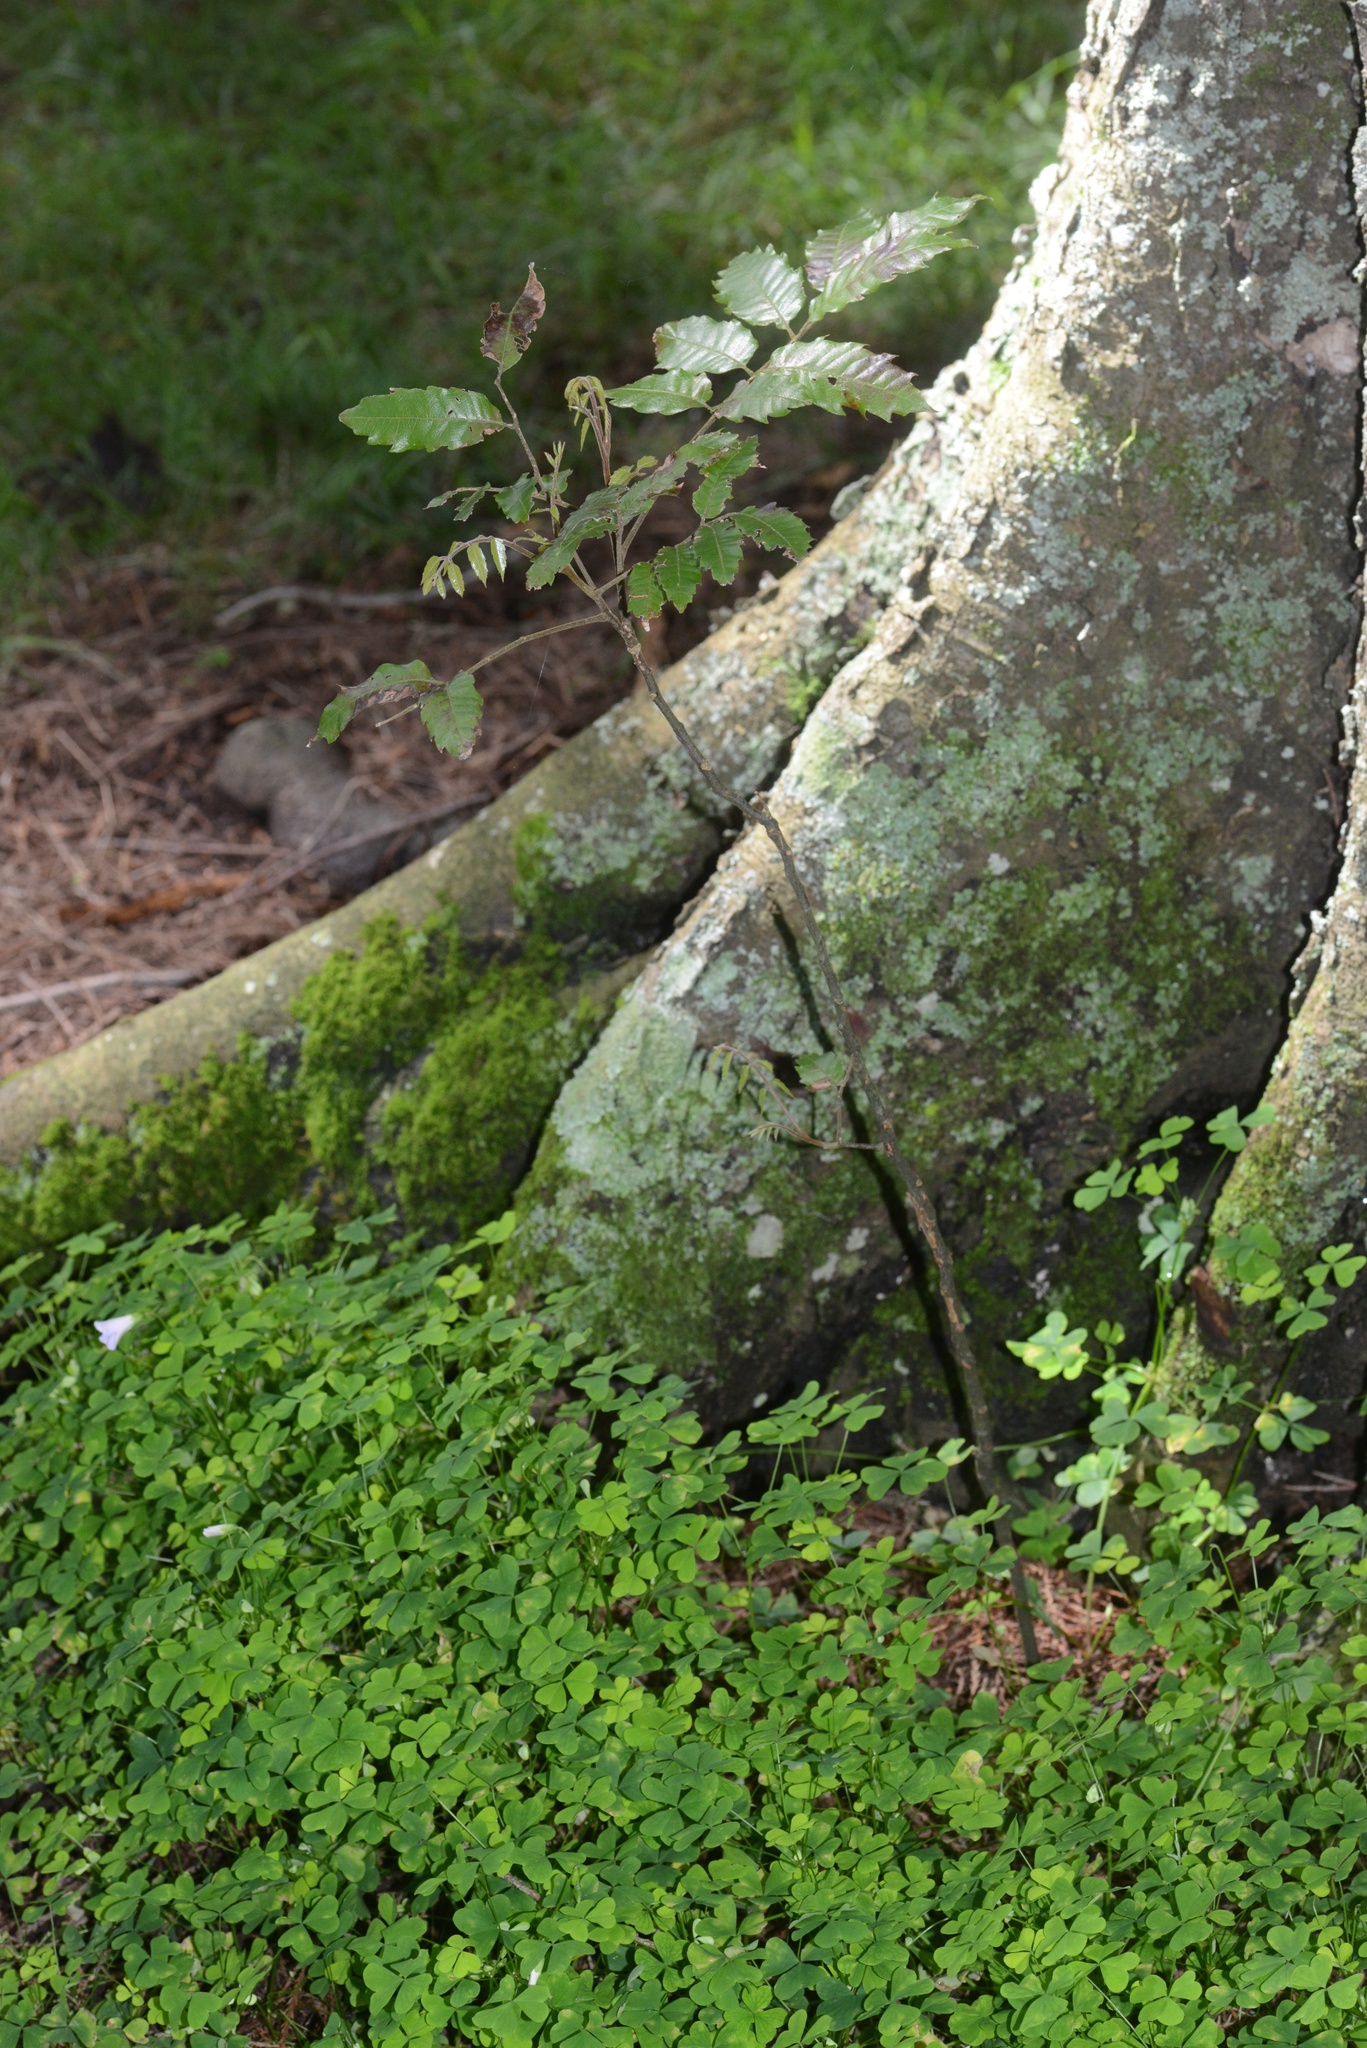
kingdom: Plantae
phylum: Tracheophyta
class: Magnoliopsida
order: Sapindales
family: Sapindaceae
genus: Alectryon
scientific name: Alectryon excelsus
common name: Three kings titoki
